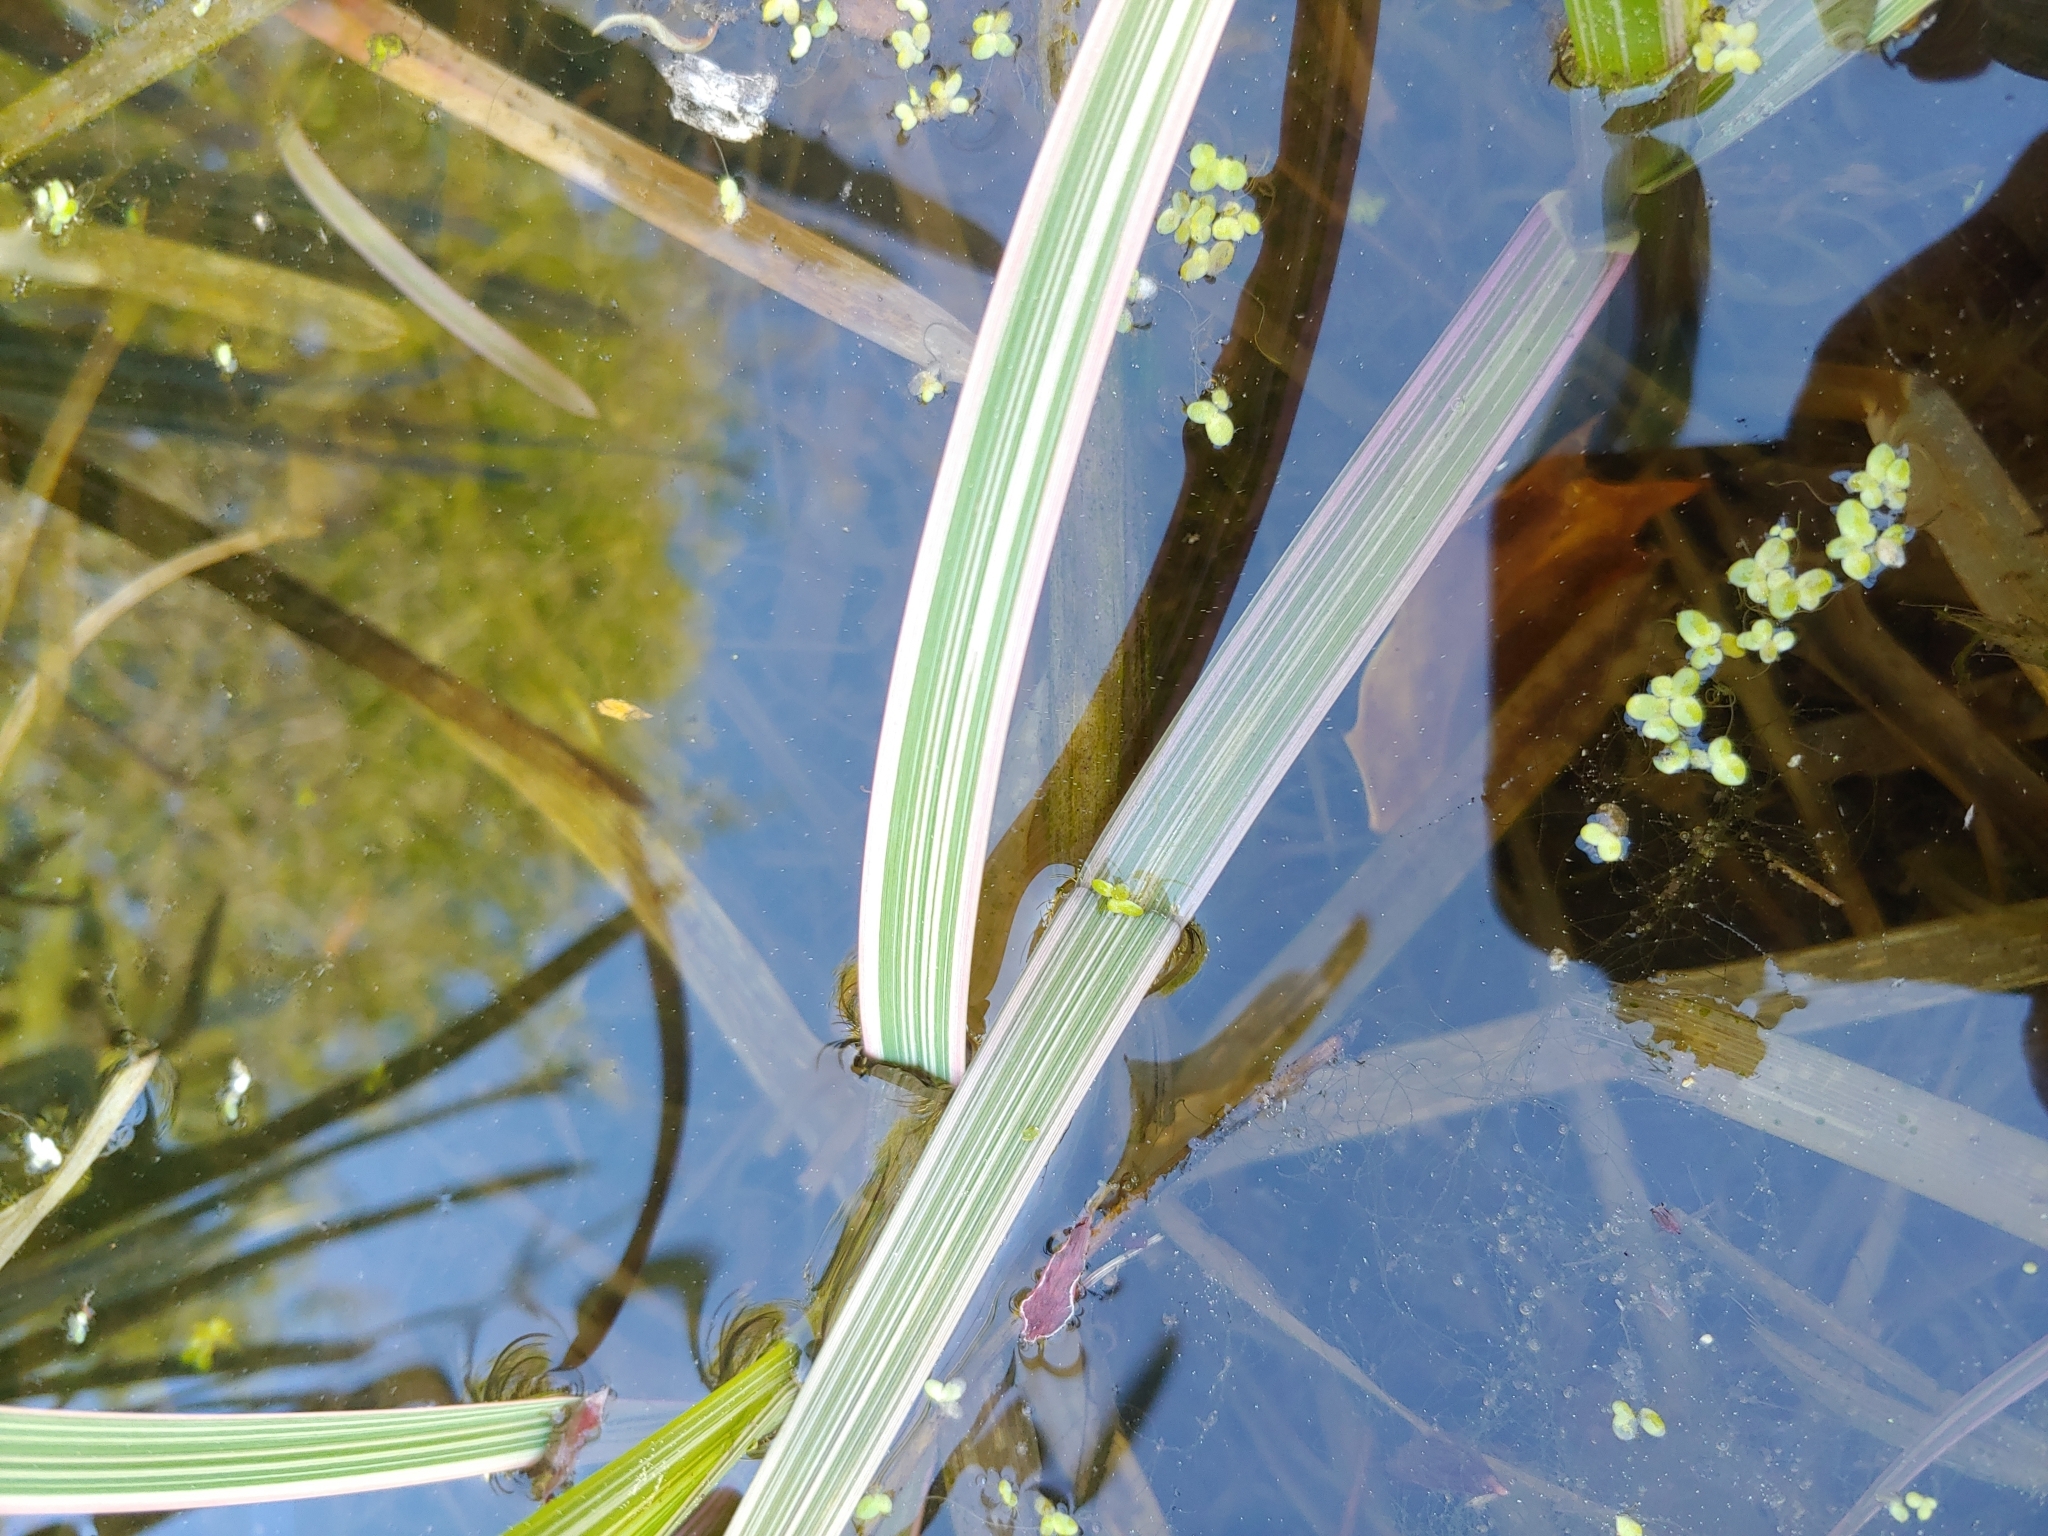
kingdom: Plantae
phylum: Tracheophyta
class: Liliopsida
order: Alismatales
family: Araceae
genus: Lemna
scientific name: Lemna minor
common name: Common duckweed
